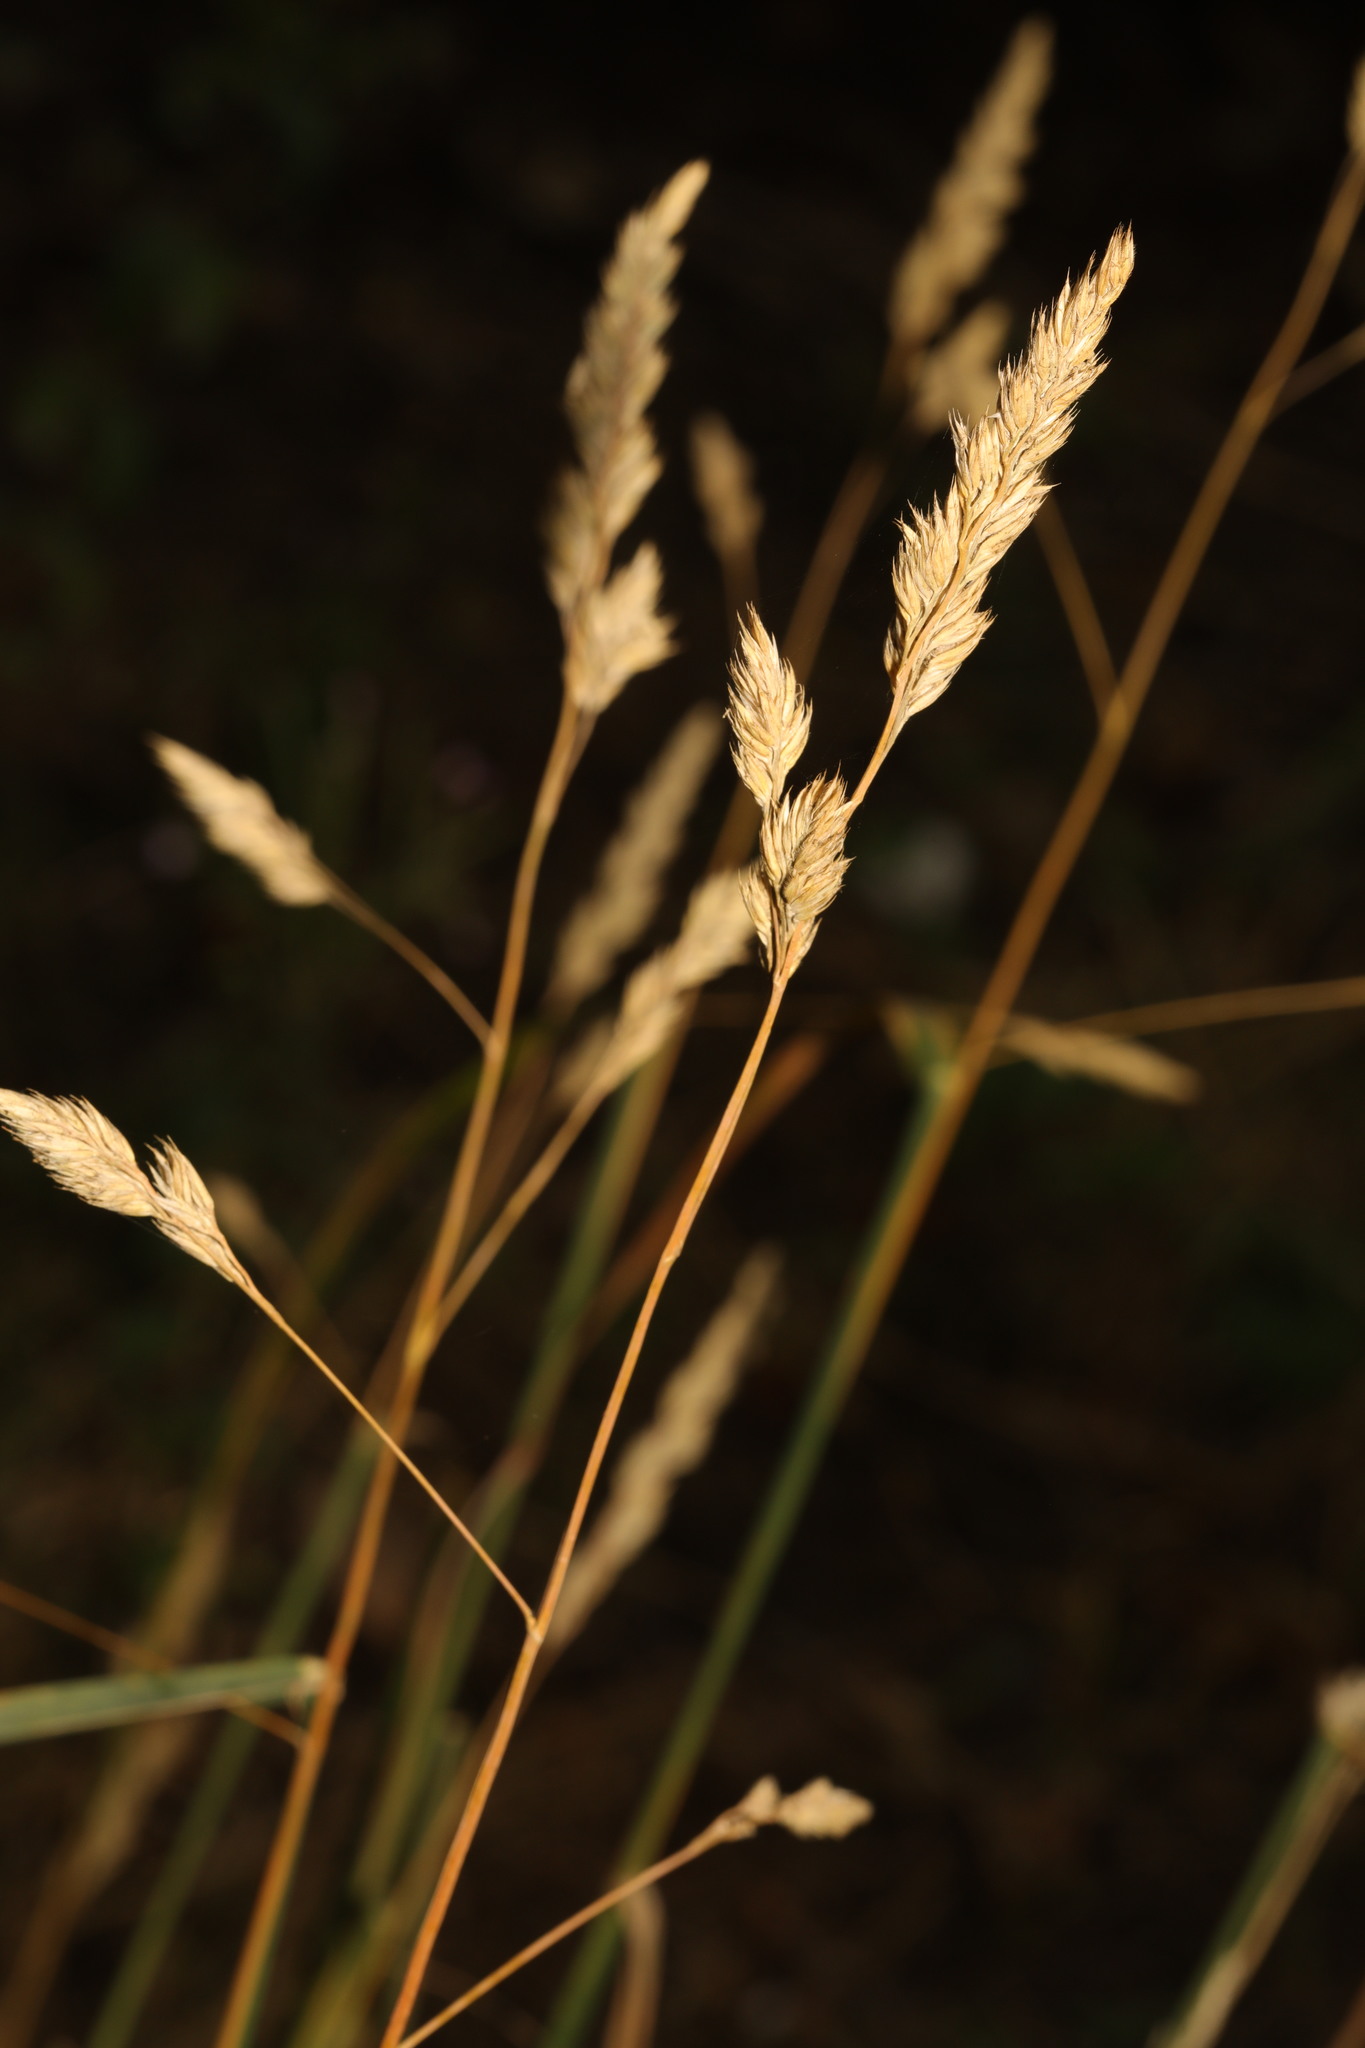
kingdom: Plantae
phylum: Tracheophyta
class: Liliopsida
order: Poales
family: Poaceae
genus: Dactylis
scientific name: Dactylis glomerata
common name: Orchardgrass
